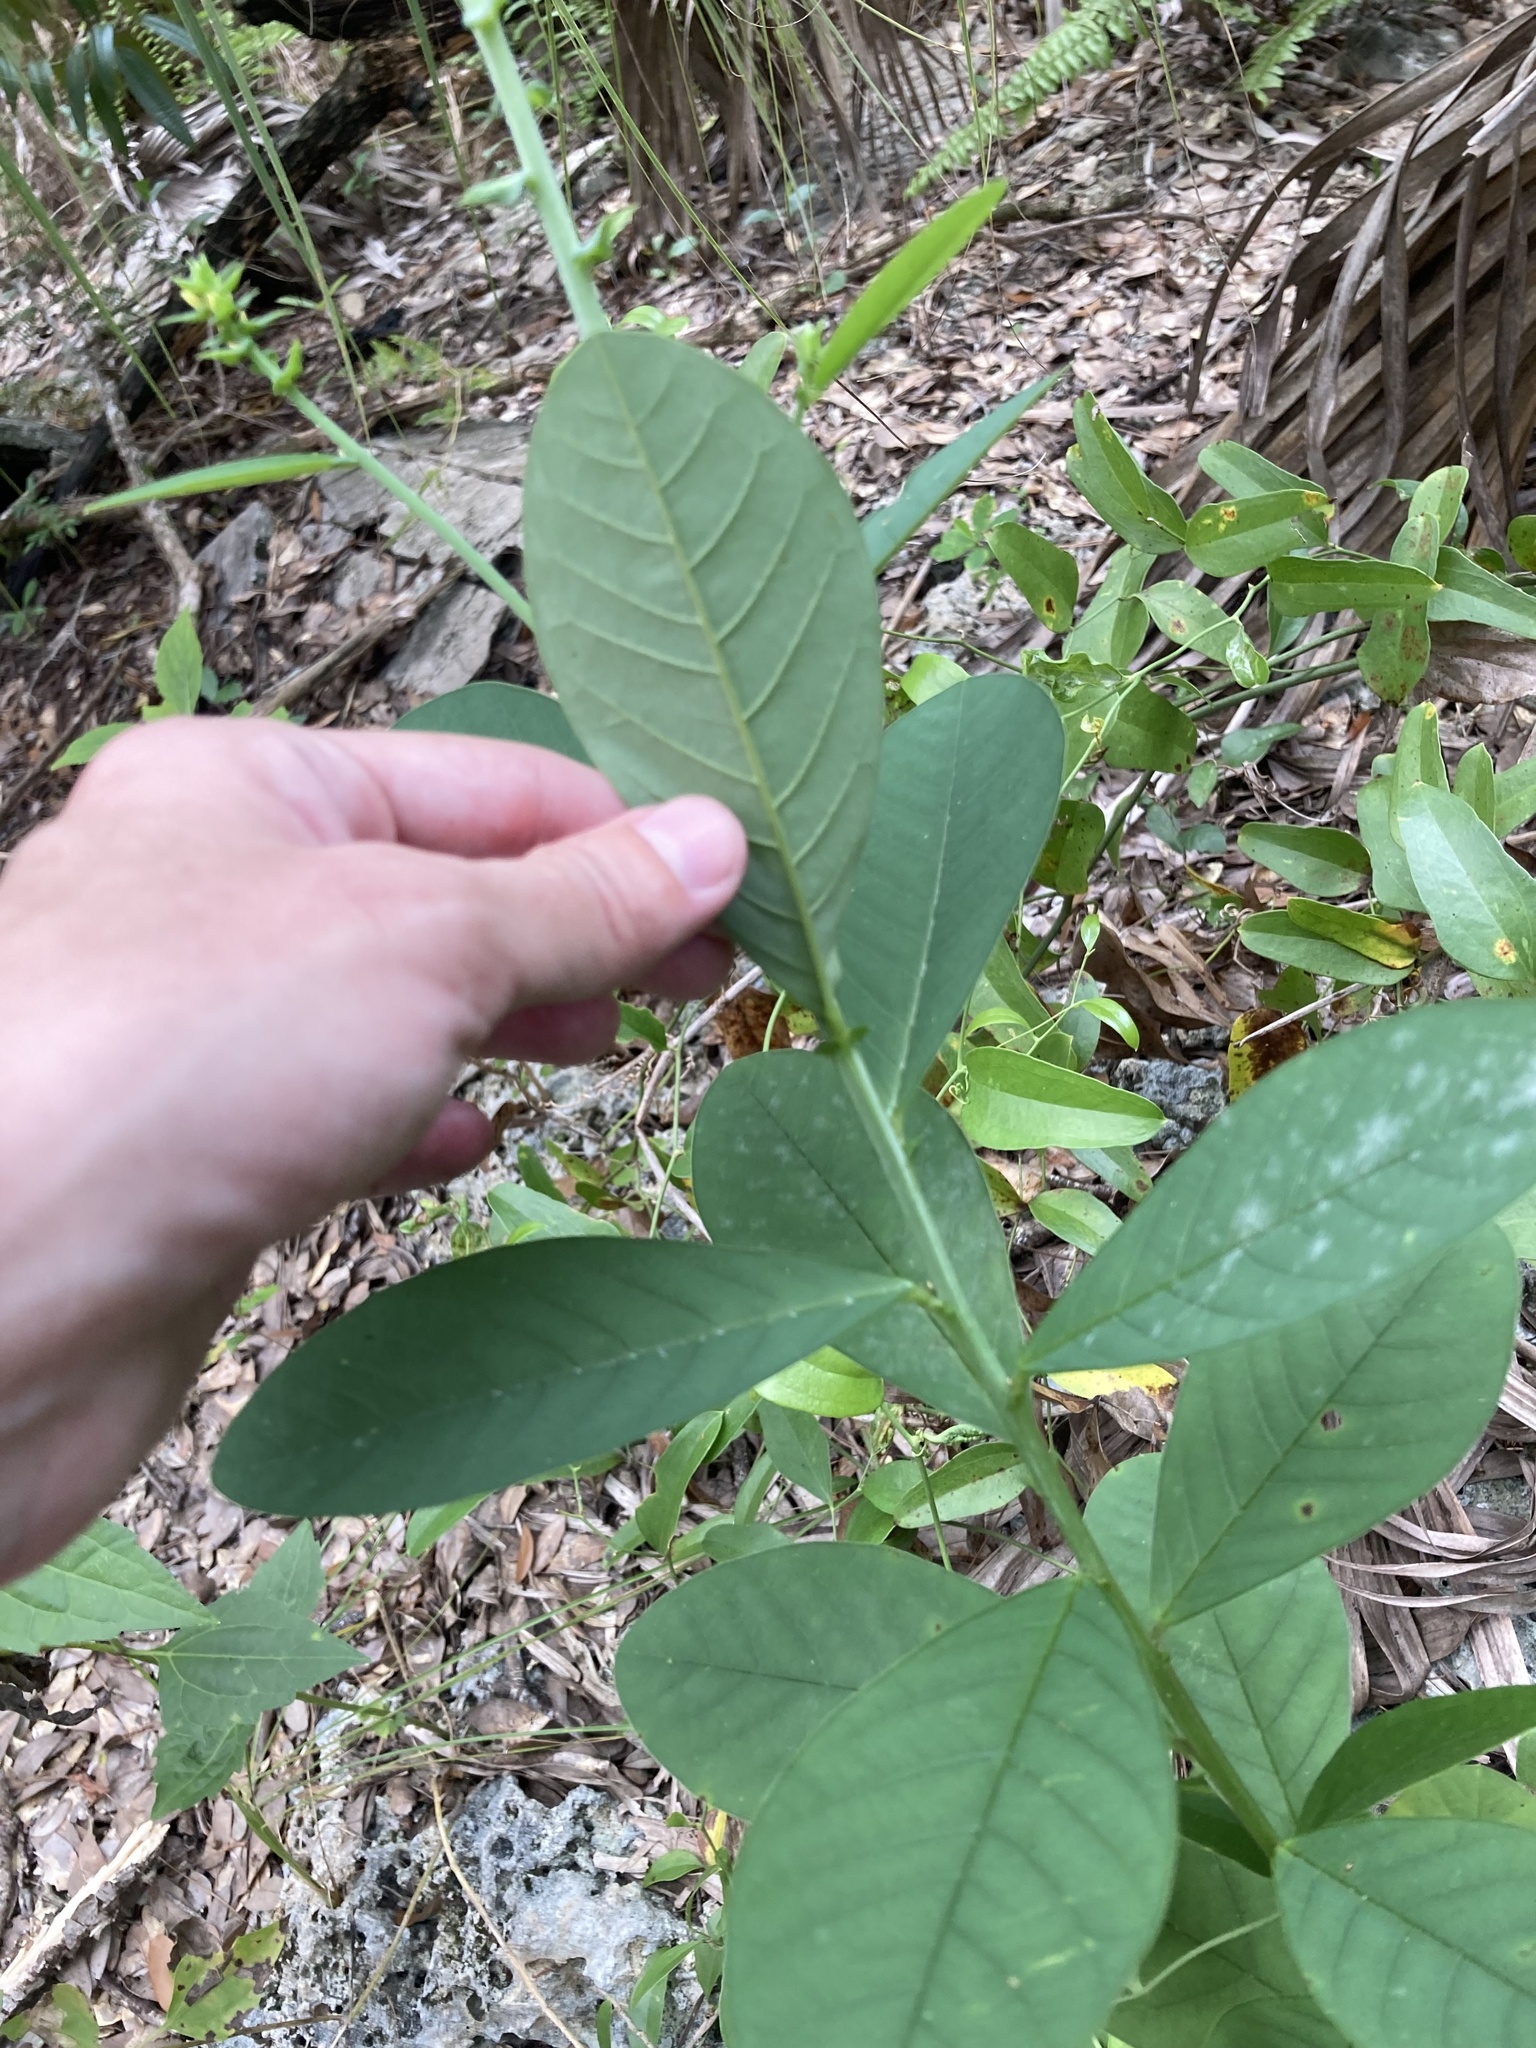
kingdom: Plantae
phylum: Tracheophyta
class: Magnoliopsida
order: Fabales
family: Fabaceae
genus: Crotalaria
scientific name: Crotalaria spectabilis
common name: Showy rattlebox
